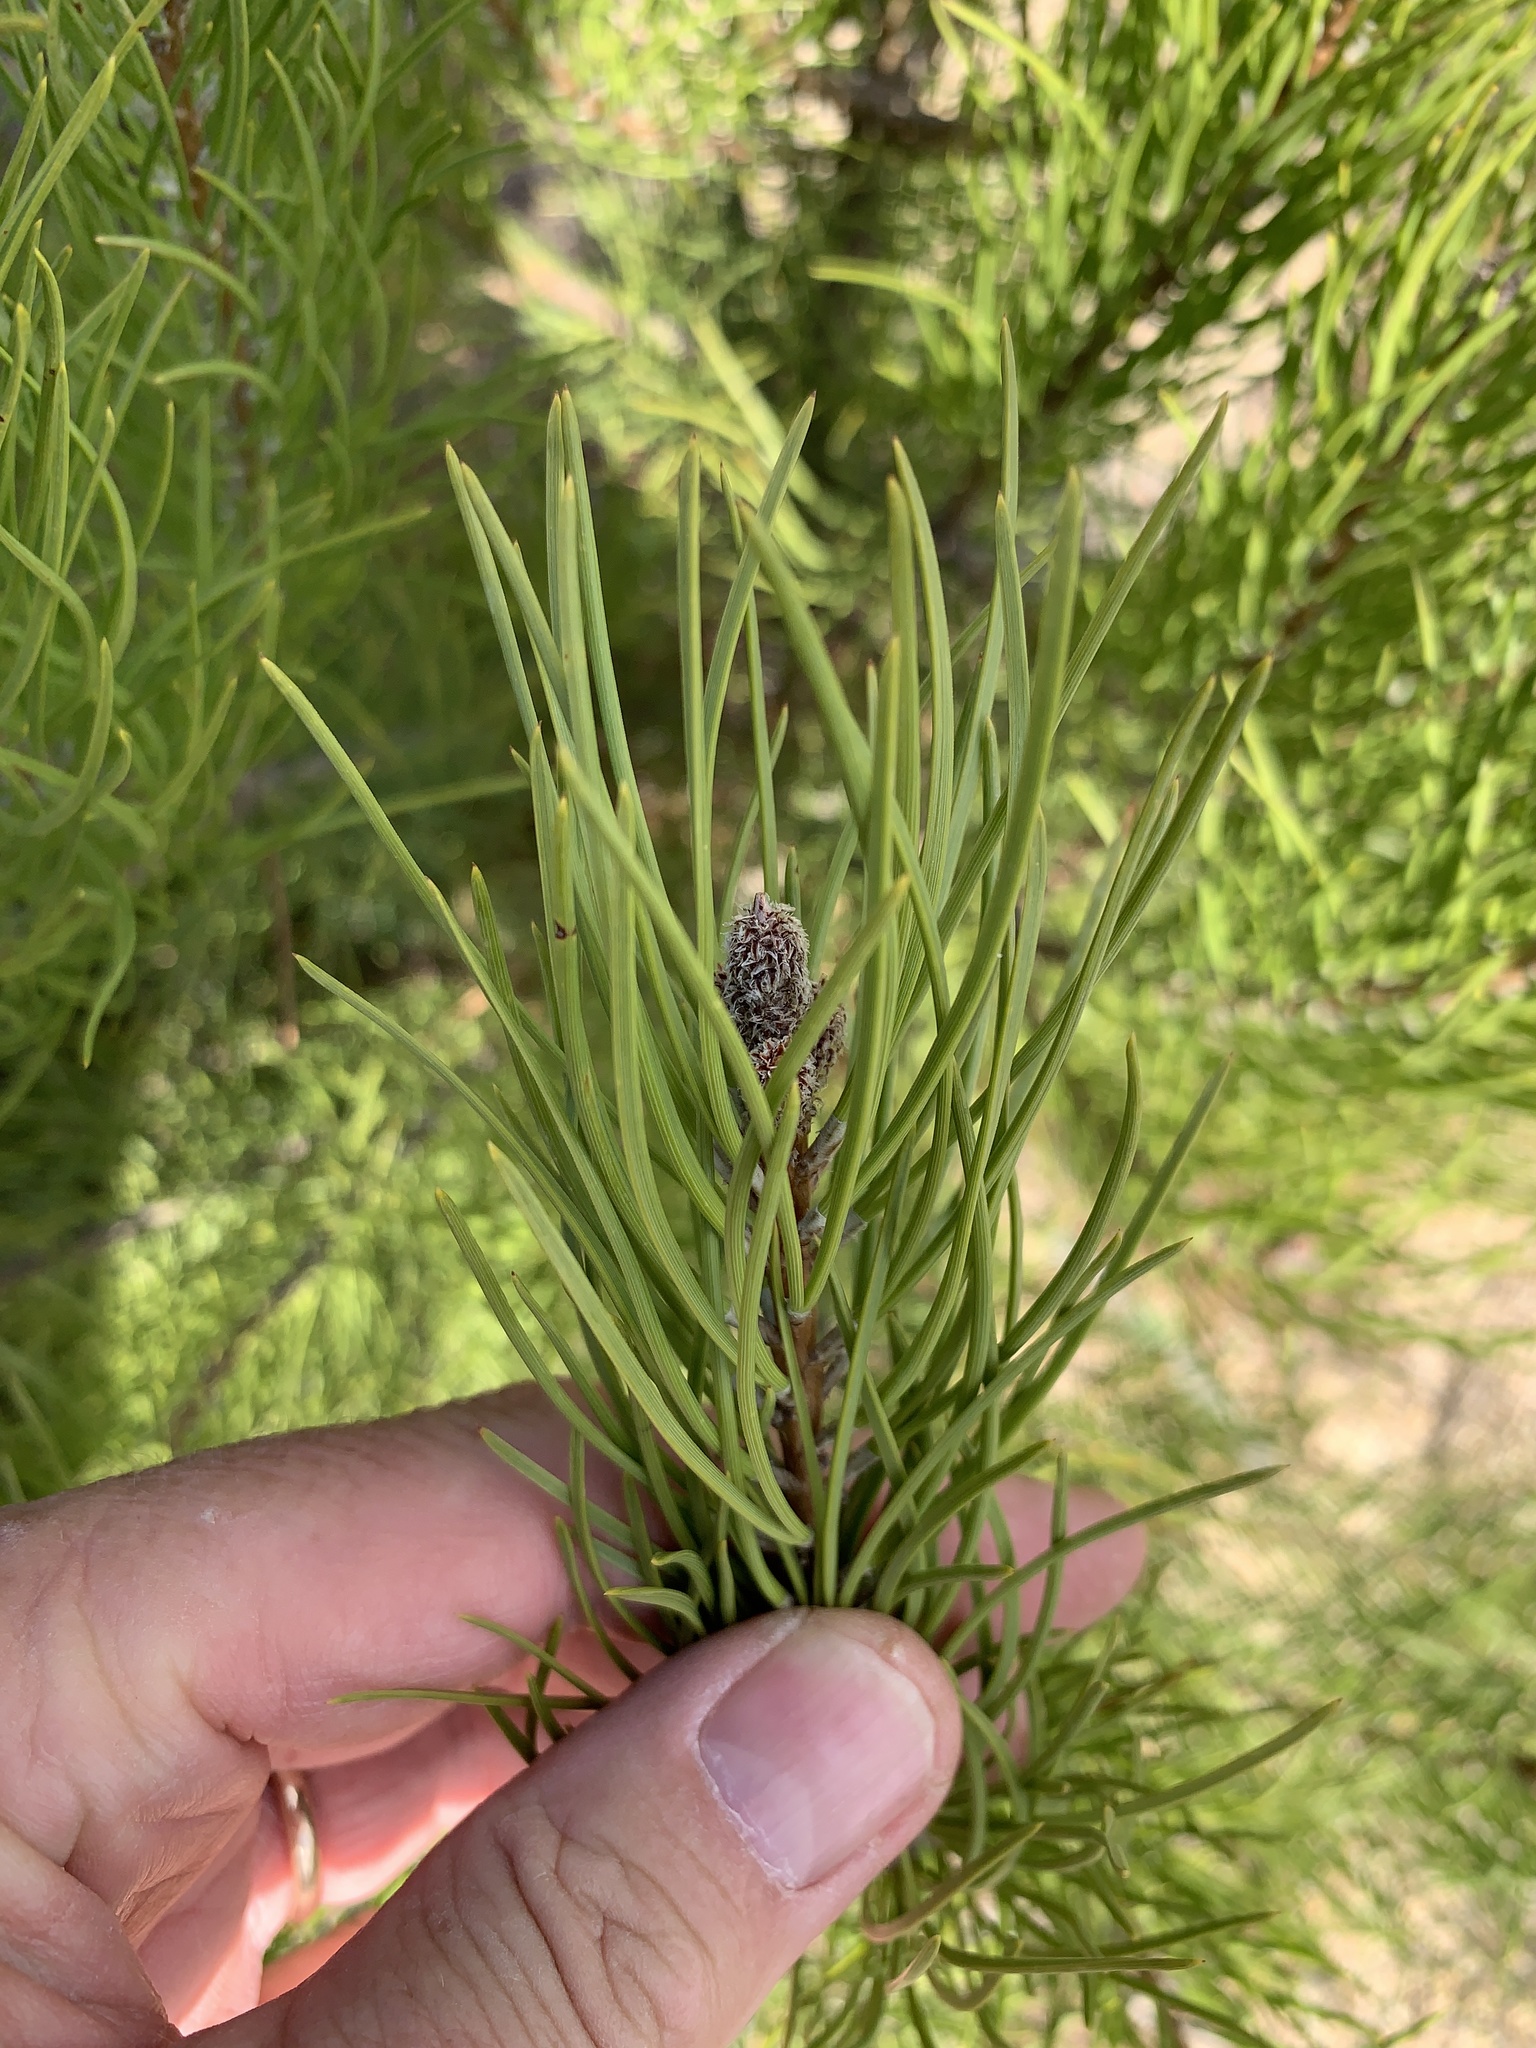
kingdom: Plantae
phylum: Tracheophyta
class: Pinopsida
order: Pinales
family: Pinaceae
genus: Pinus
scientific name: Pinus pinea
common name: Italian stone pine
